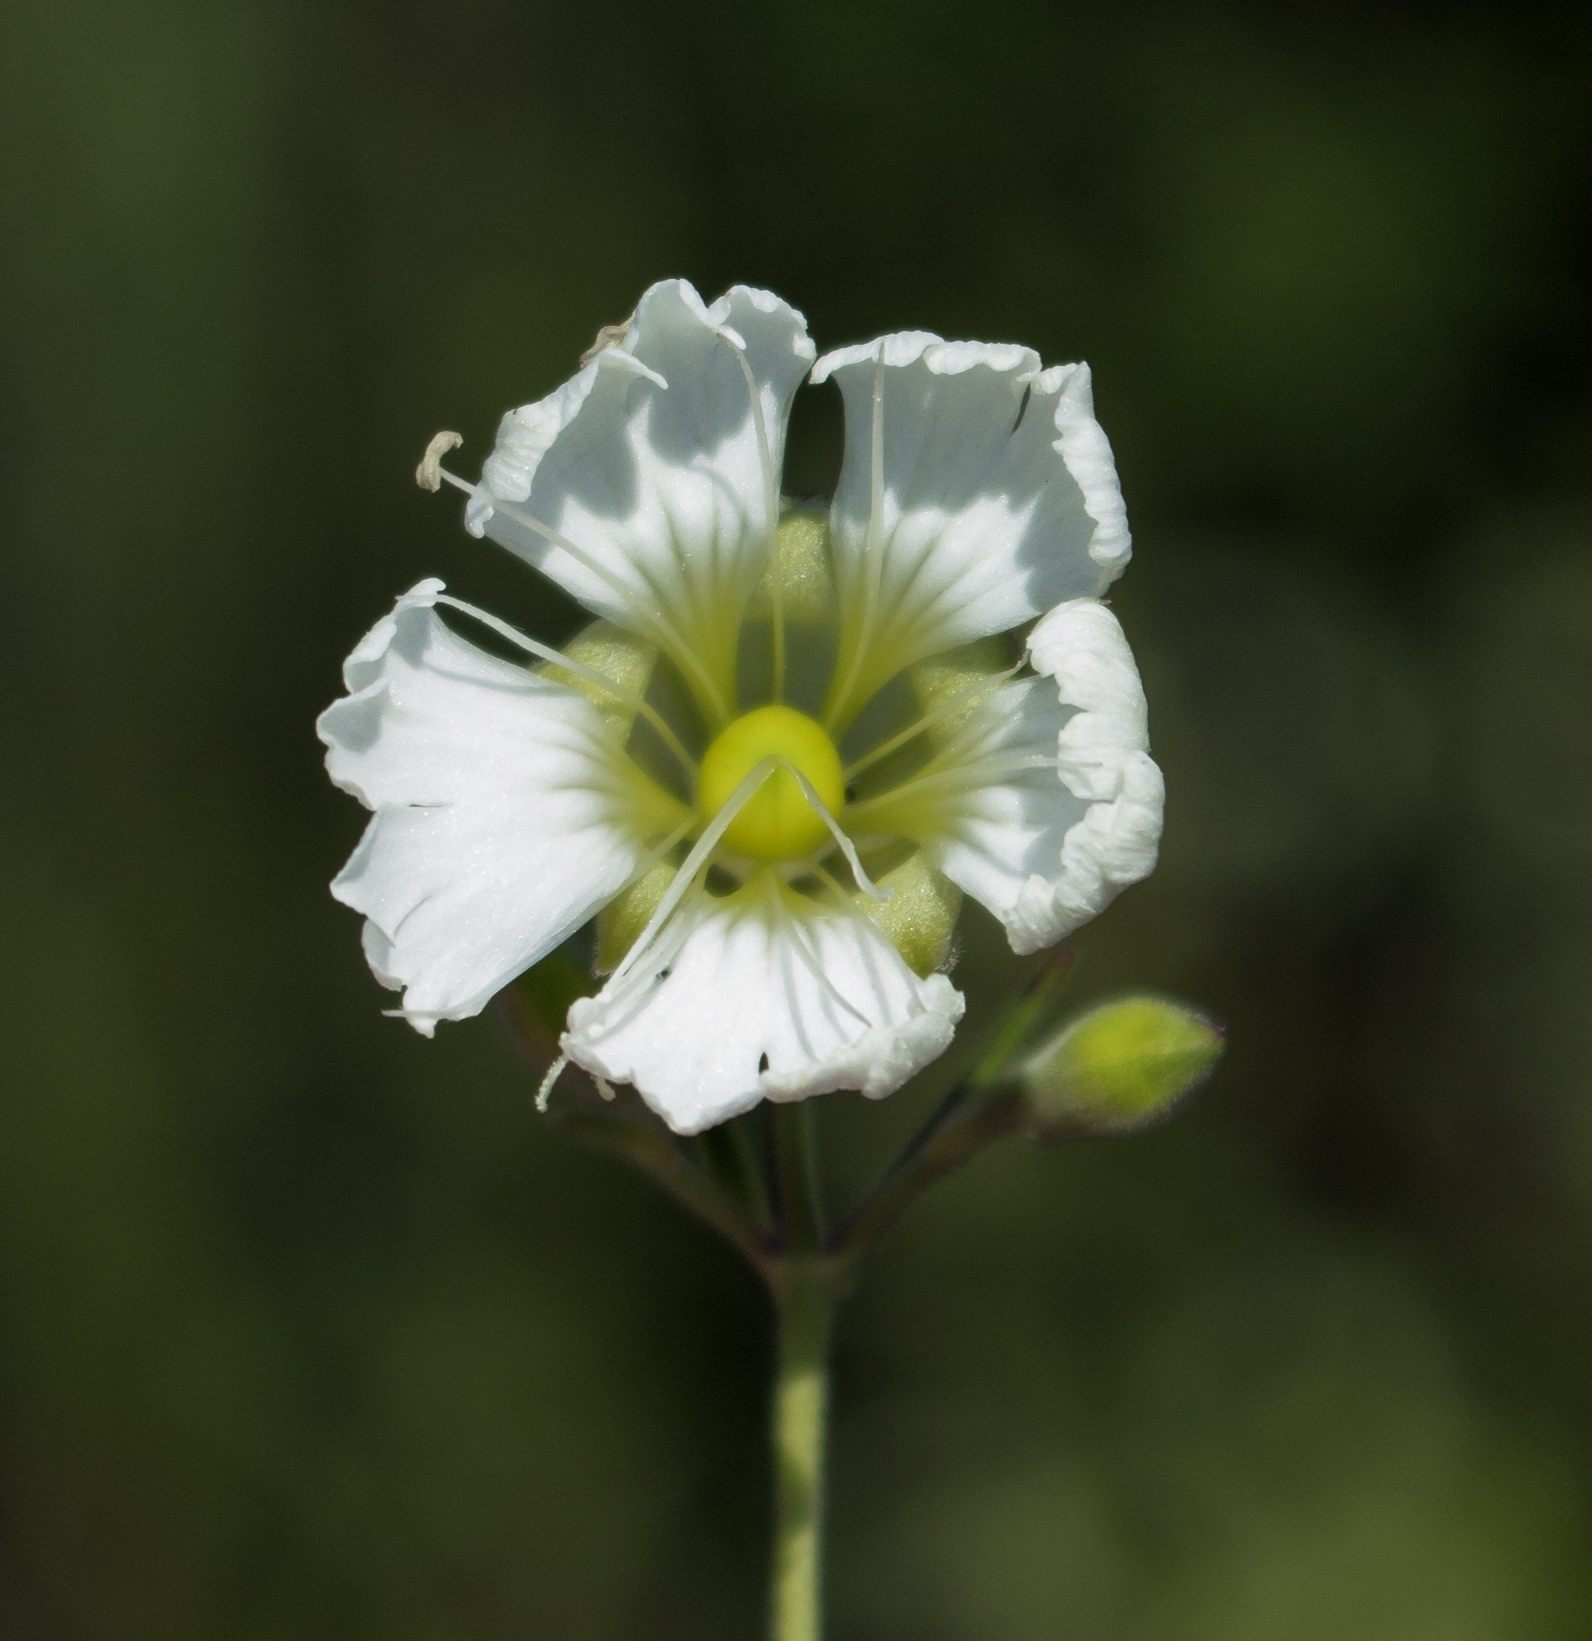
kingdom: Plantae
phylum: Tracheophyta
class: Magnoliopsida
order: Caryophyllales
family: Caryophyllaceae
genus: Silene
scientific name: Silene stellata
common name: Starry campion
